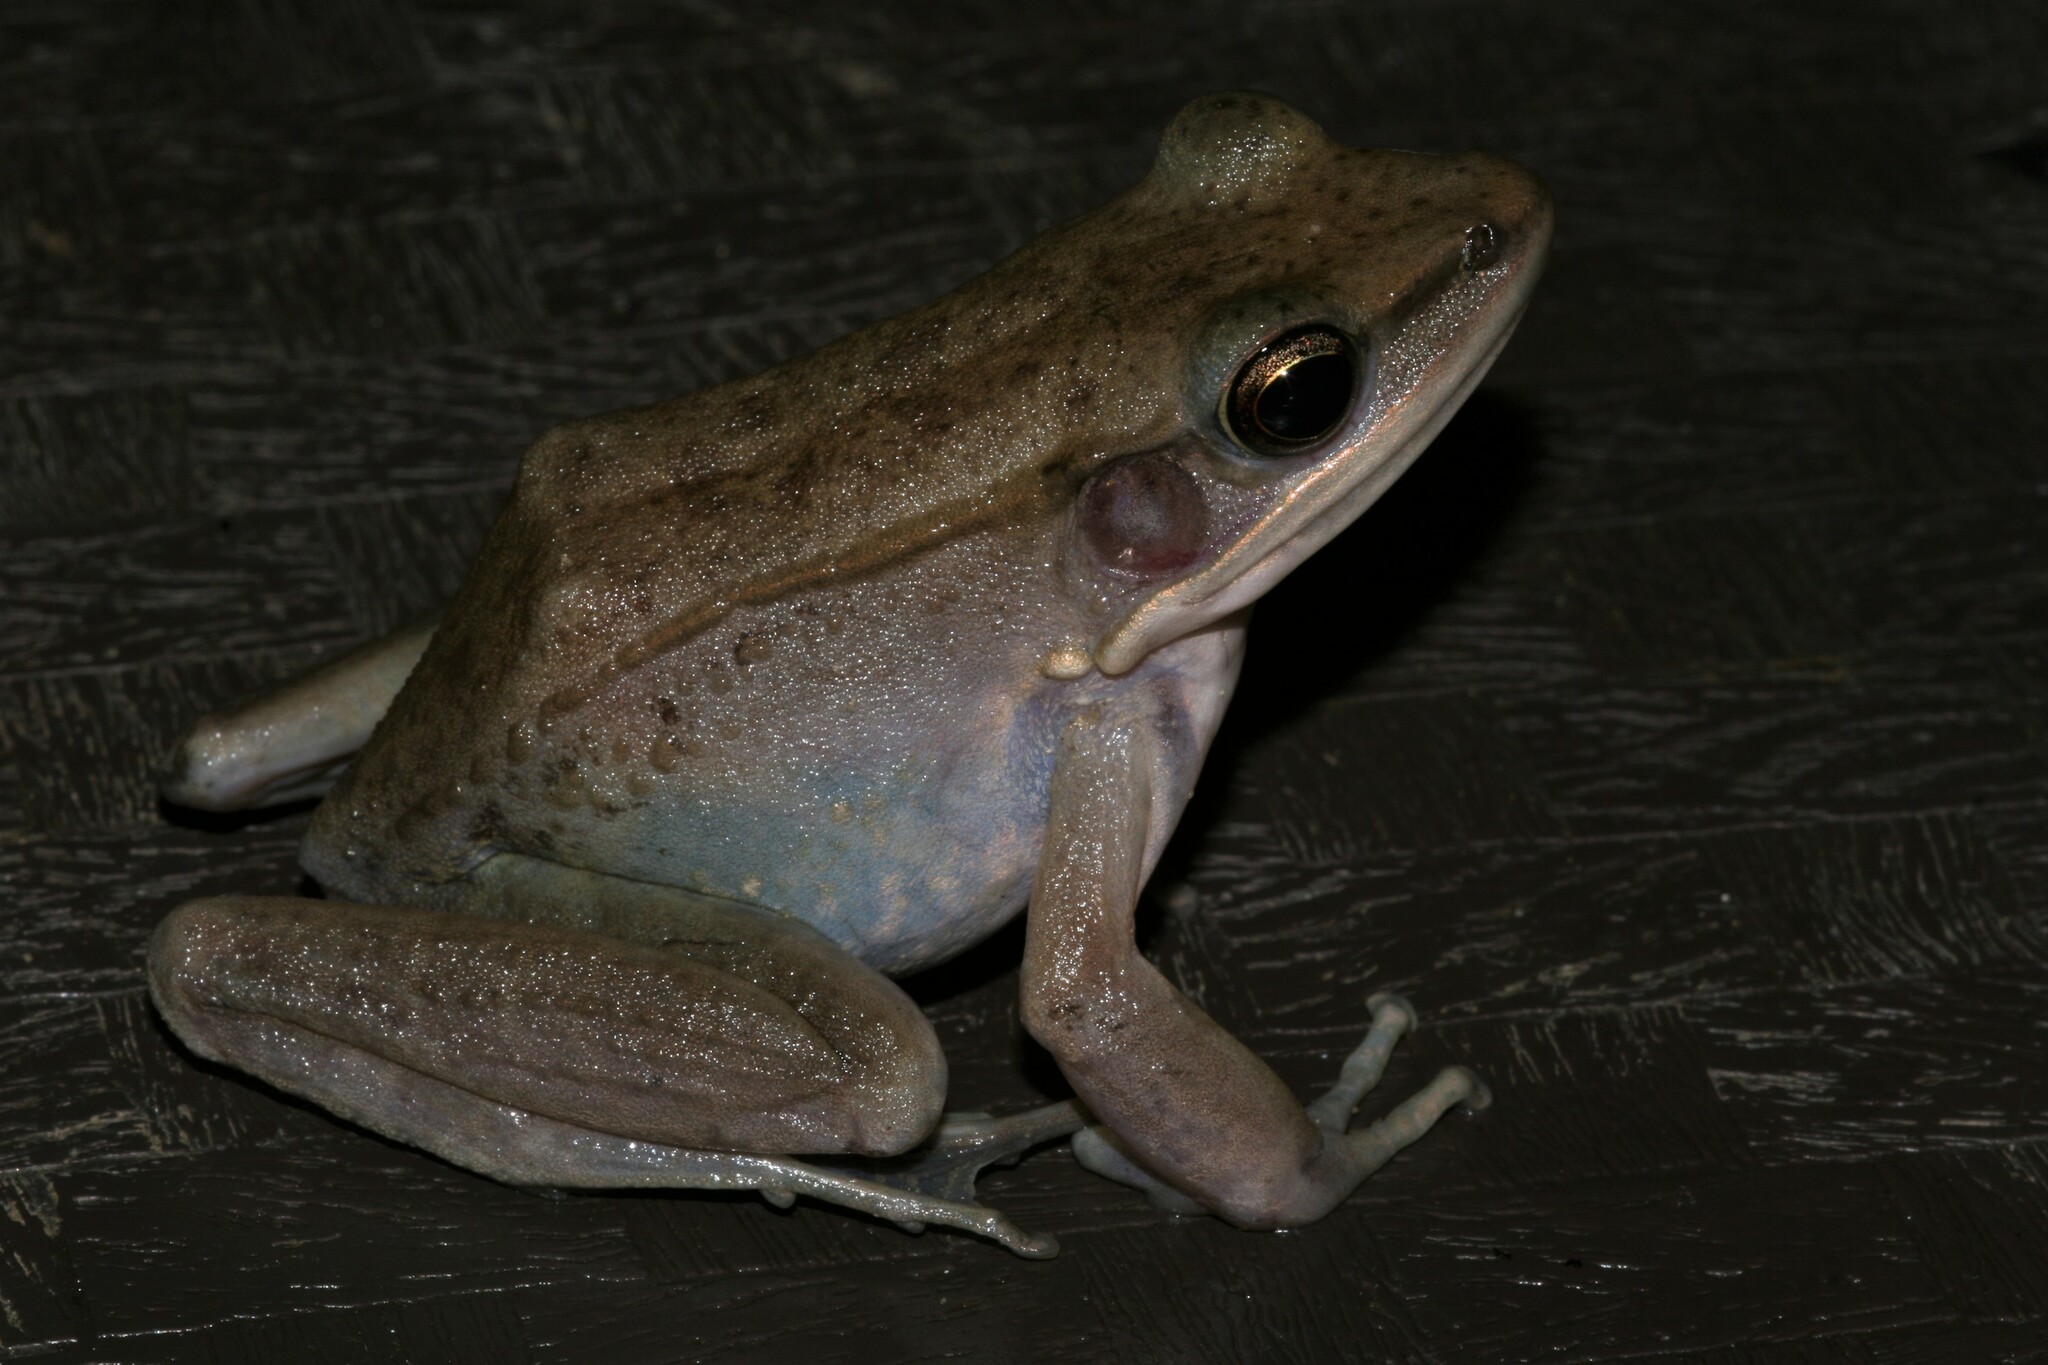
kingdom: Animalia
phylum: Chordata
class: Amphibia
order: Anura
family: Ranidae
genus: Amnirana
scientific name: Amnirana albolabris
